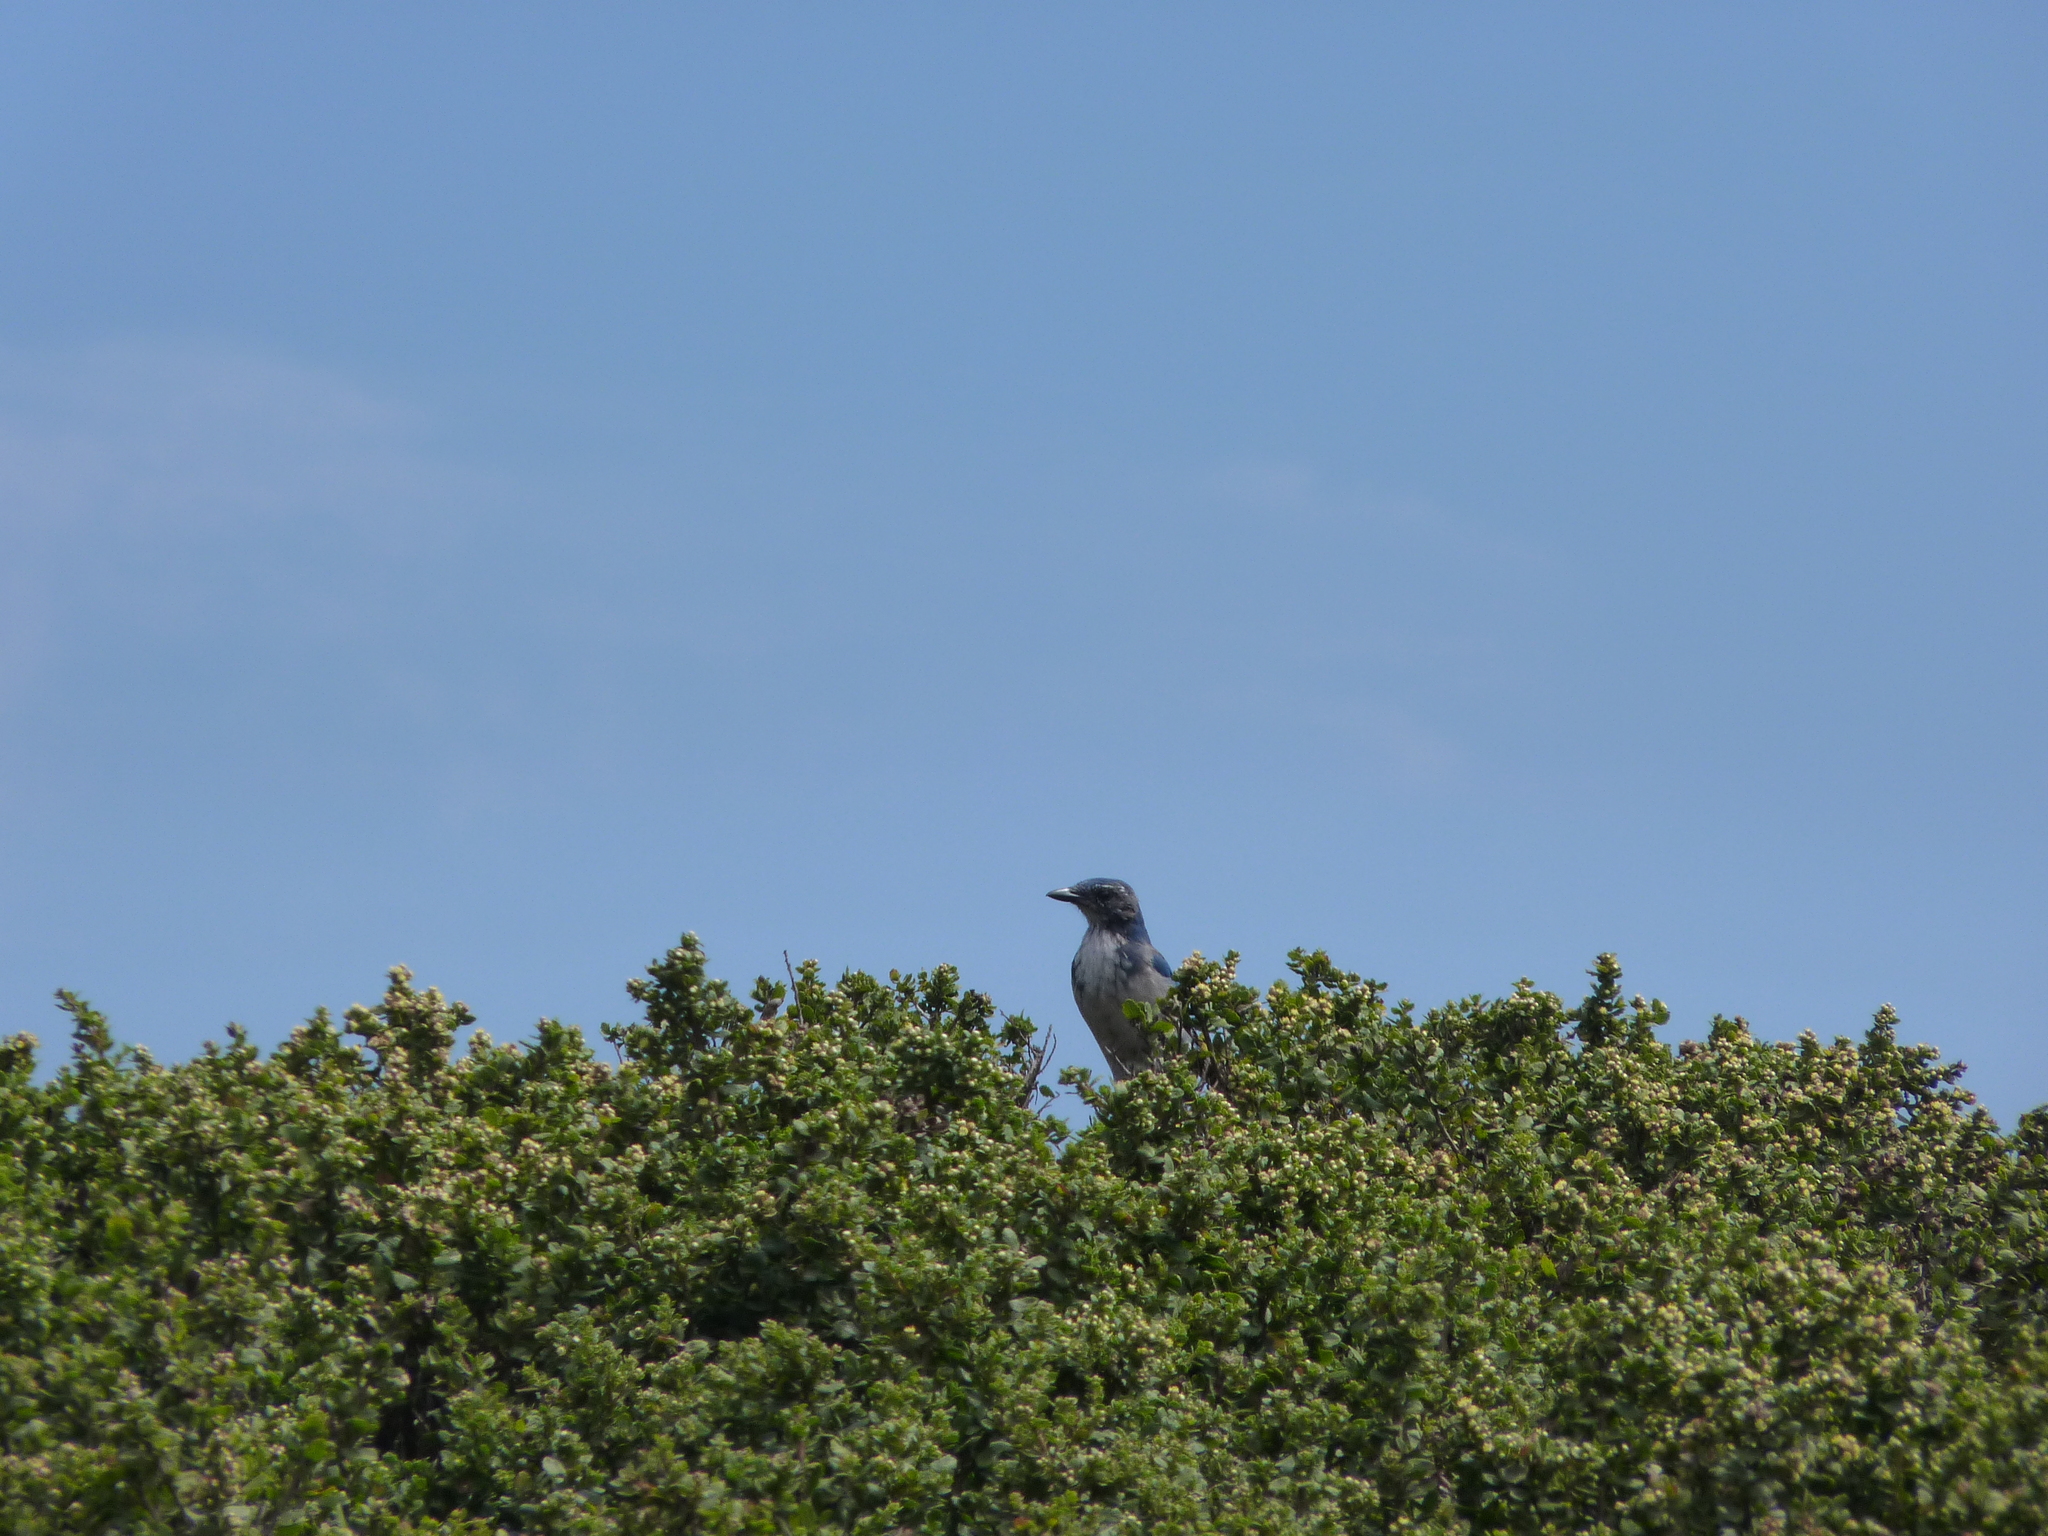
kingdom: Animalia
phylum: Chordata
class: Aves
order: Passeriformes
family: Corvidae
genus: Aphelocoma
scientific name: Aphelocoma californica
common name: California scrub-jay
